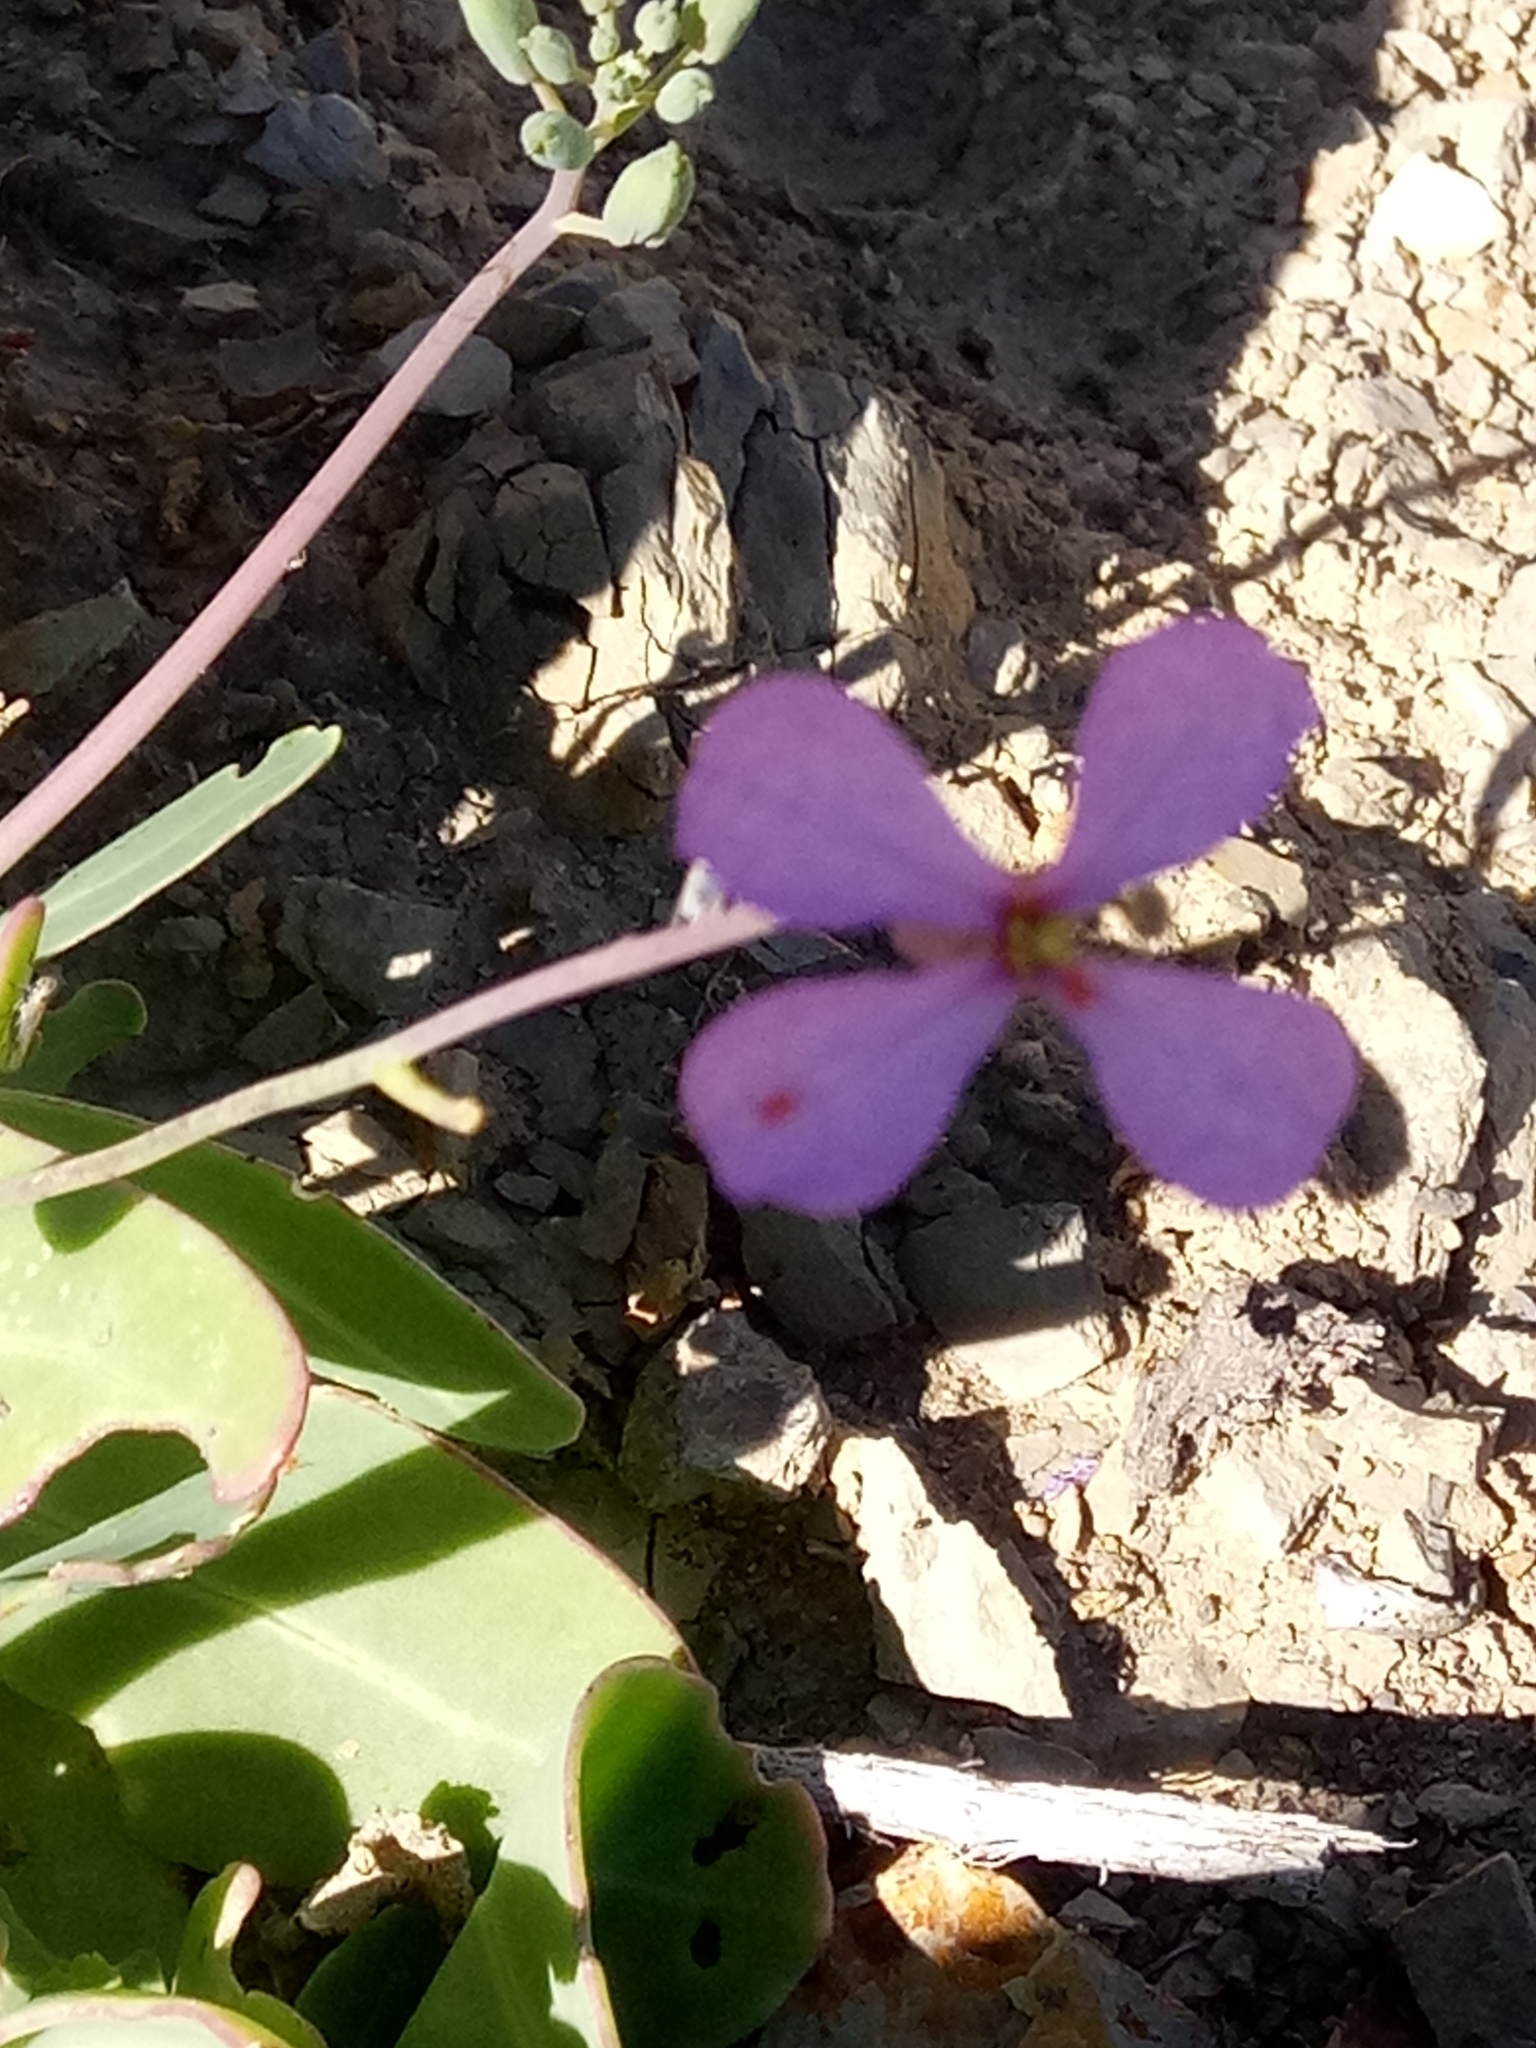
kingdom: Plantae
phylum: Tracheophyta
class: Magnoliopsida
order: Brassicales
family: Brassicaceae
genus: Moricandia
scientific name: Moricandia suffruticosa
